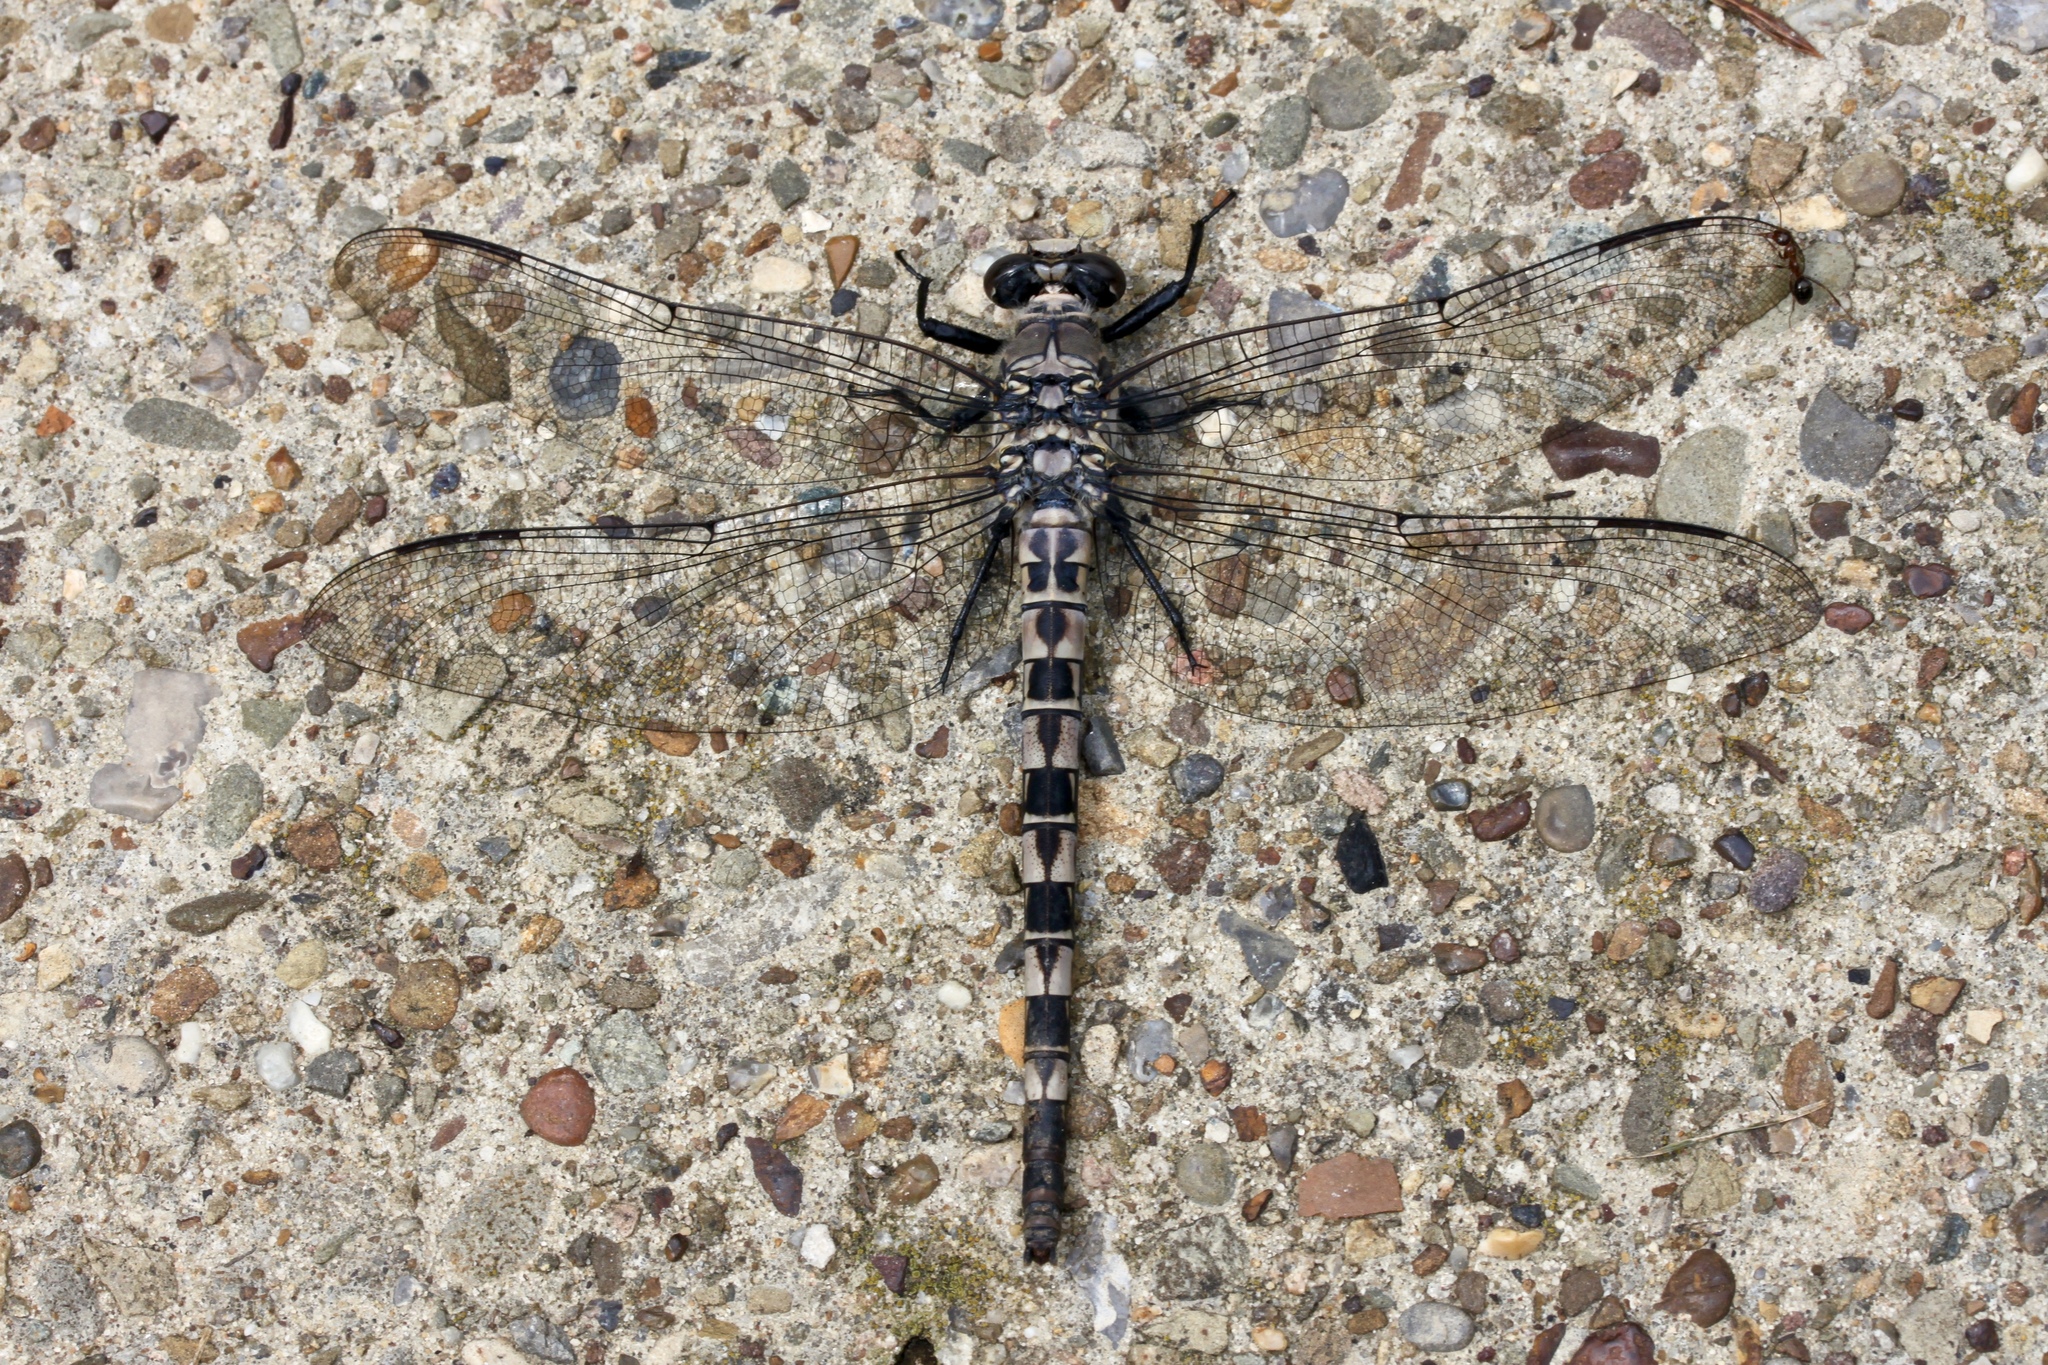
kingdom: Animalia
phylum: Arthropoda
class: Insecta
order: Odonata
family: Petaluridae
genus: Tachopteryx
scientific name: Tachopteryx thoreyi
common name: Gray petaltail
